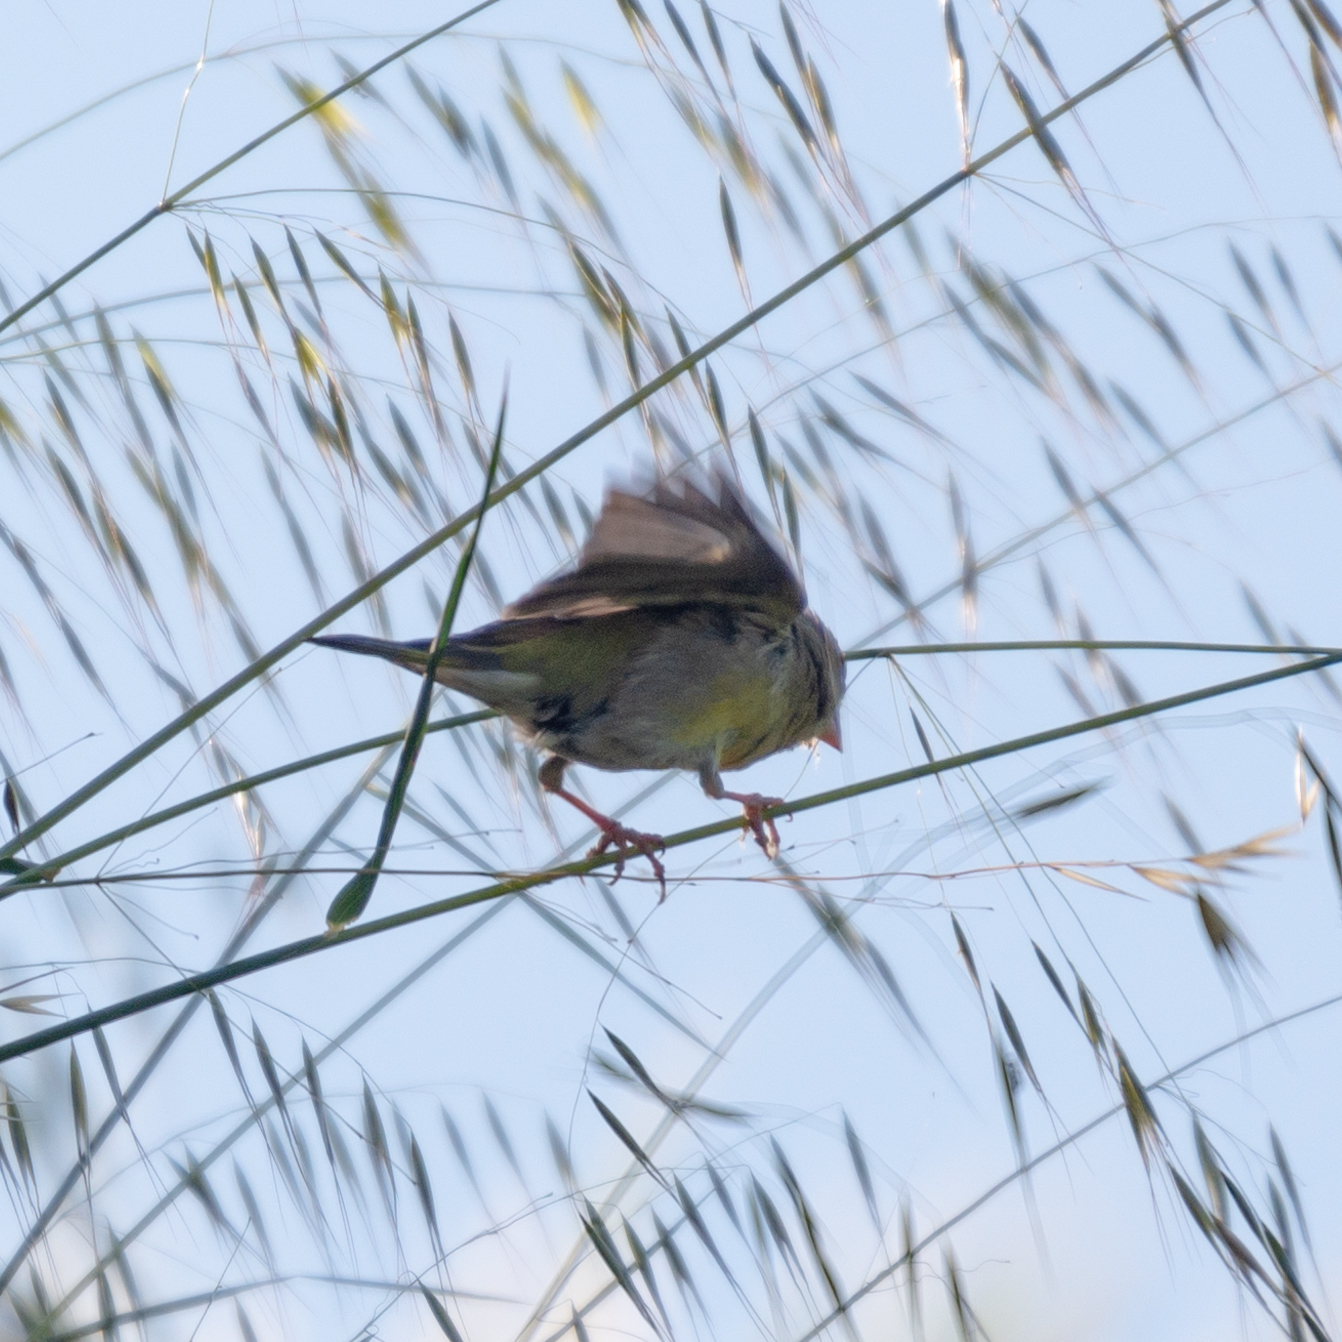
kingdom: Plantae
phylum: Tracheophyta
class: Liliopsida
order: Poales
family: Poaceae
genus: Chloris
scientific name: Chloris chloris
